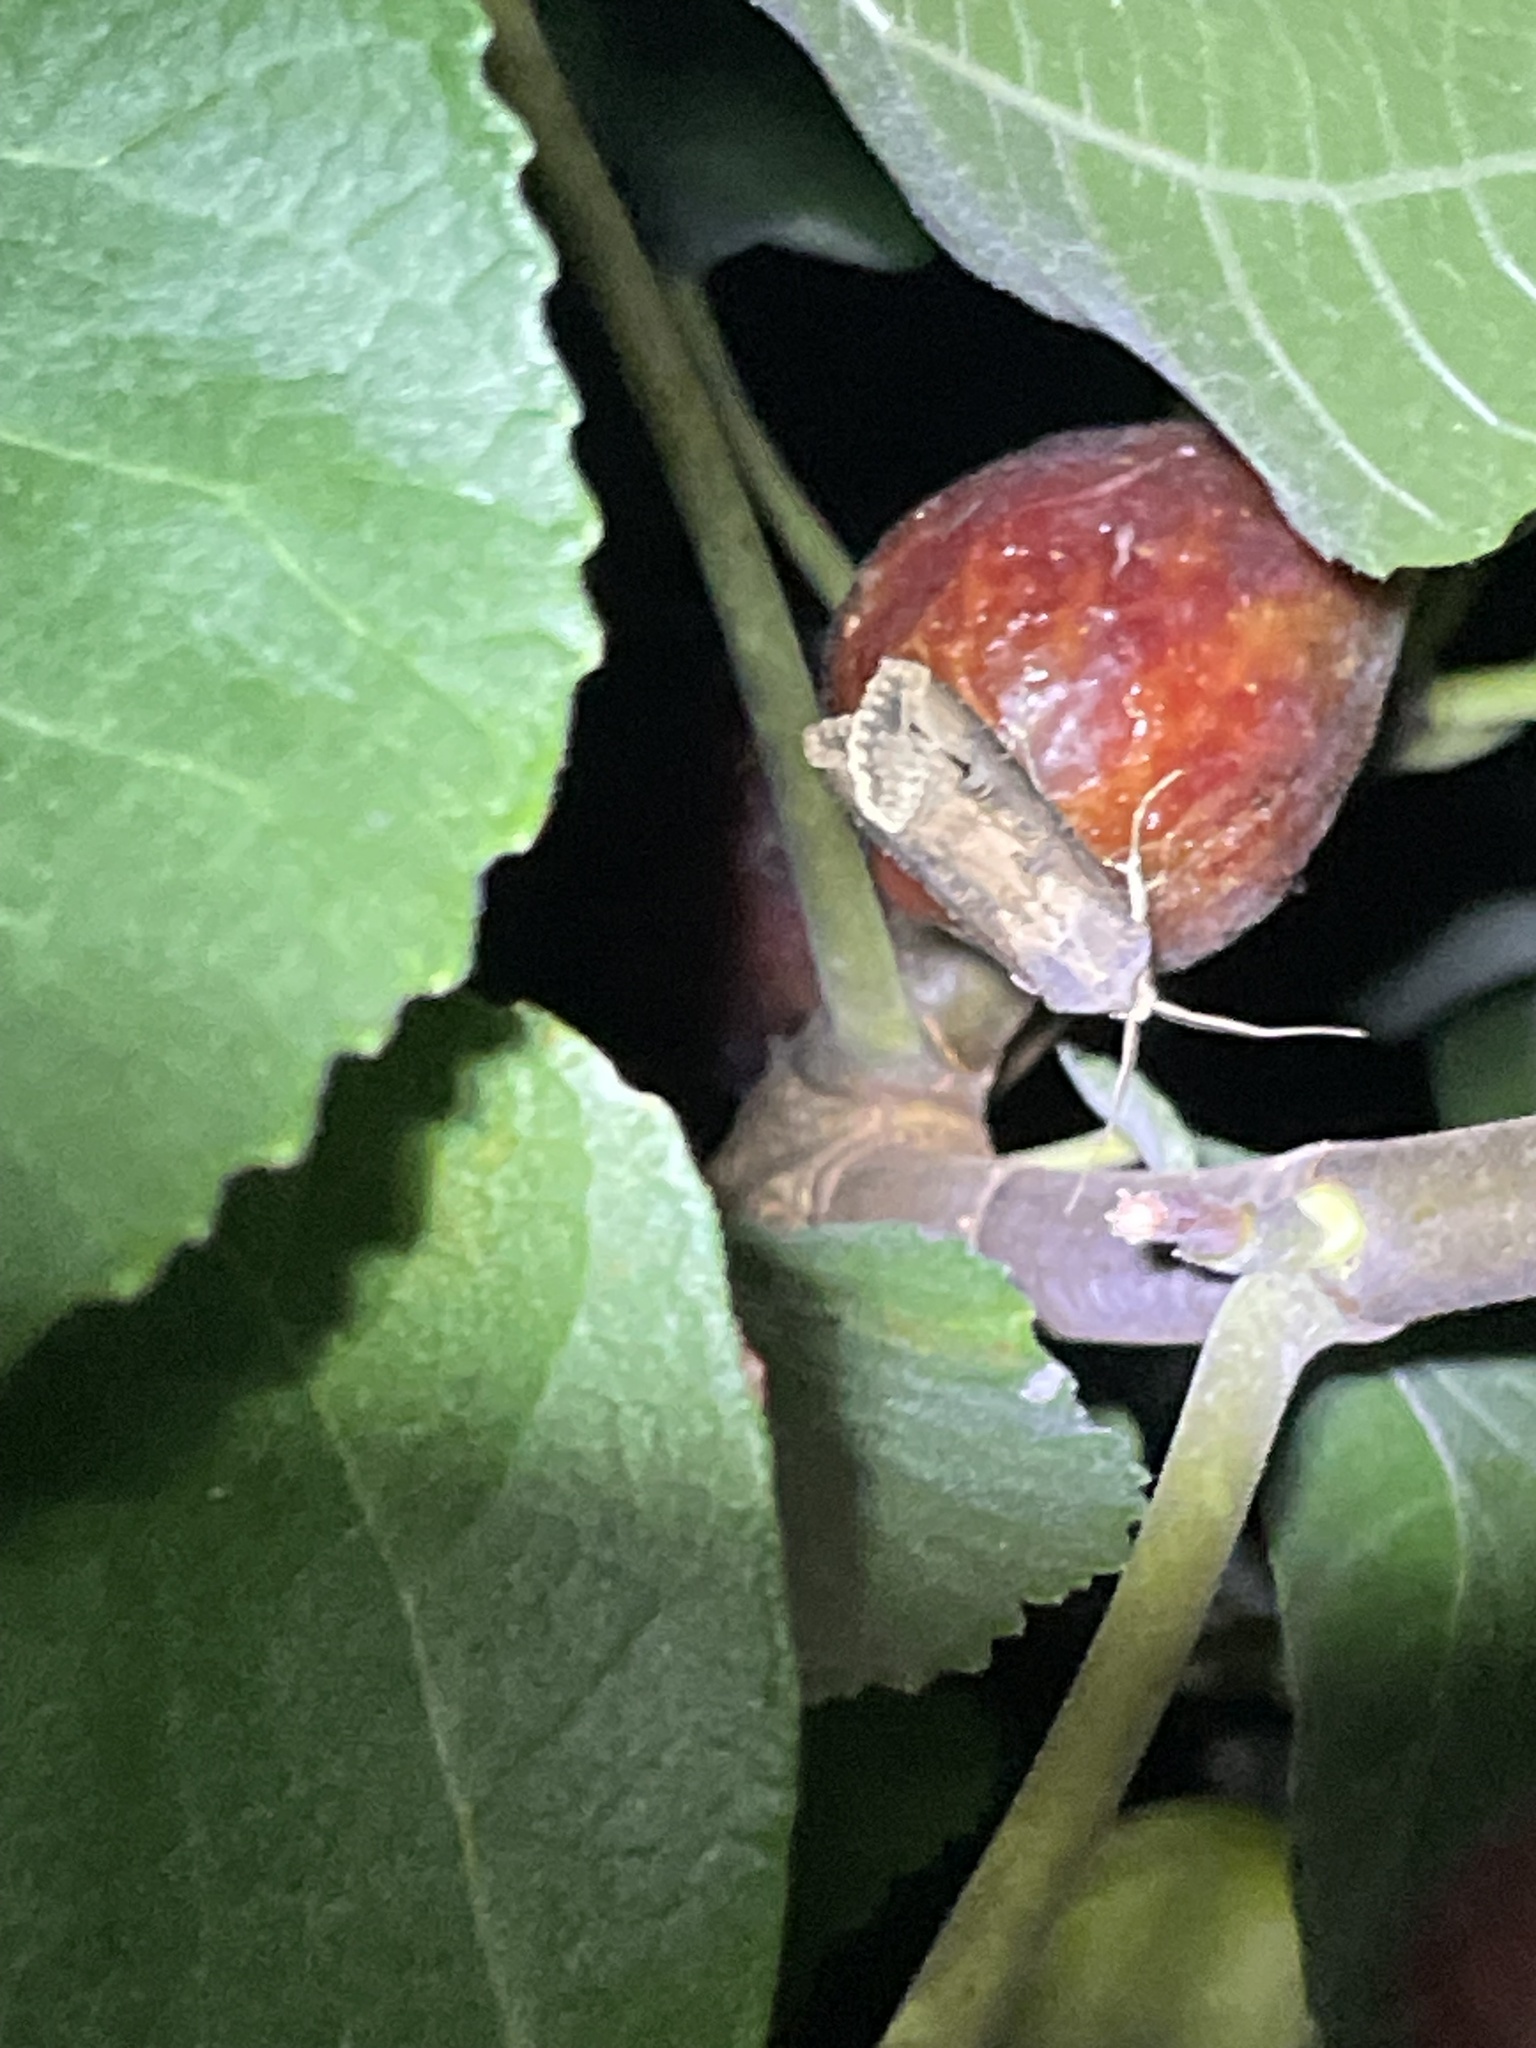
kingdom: Animalia
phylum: Arthropoda
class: Insecta
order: Lepidoptera
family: Noctuidae
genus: Agrotis
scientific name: Agrotis ipsilon
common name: Dark sword-grass
